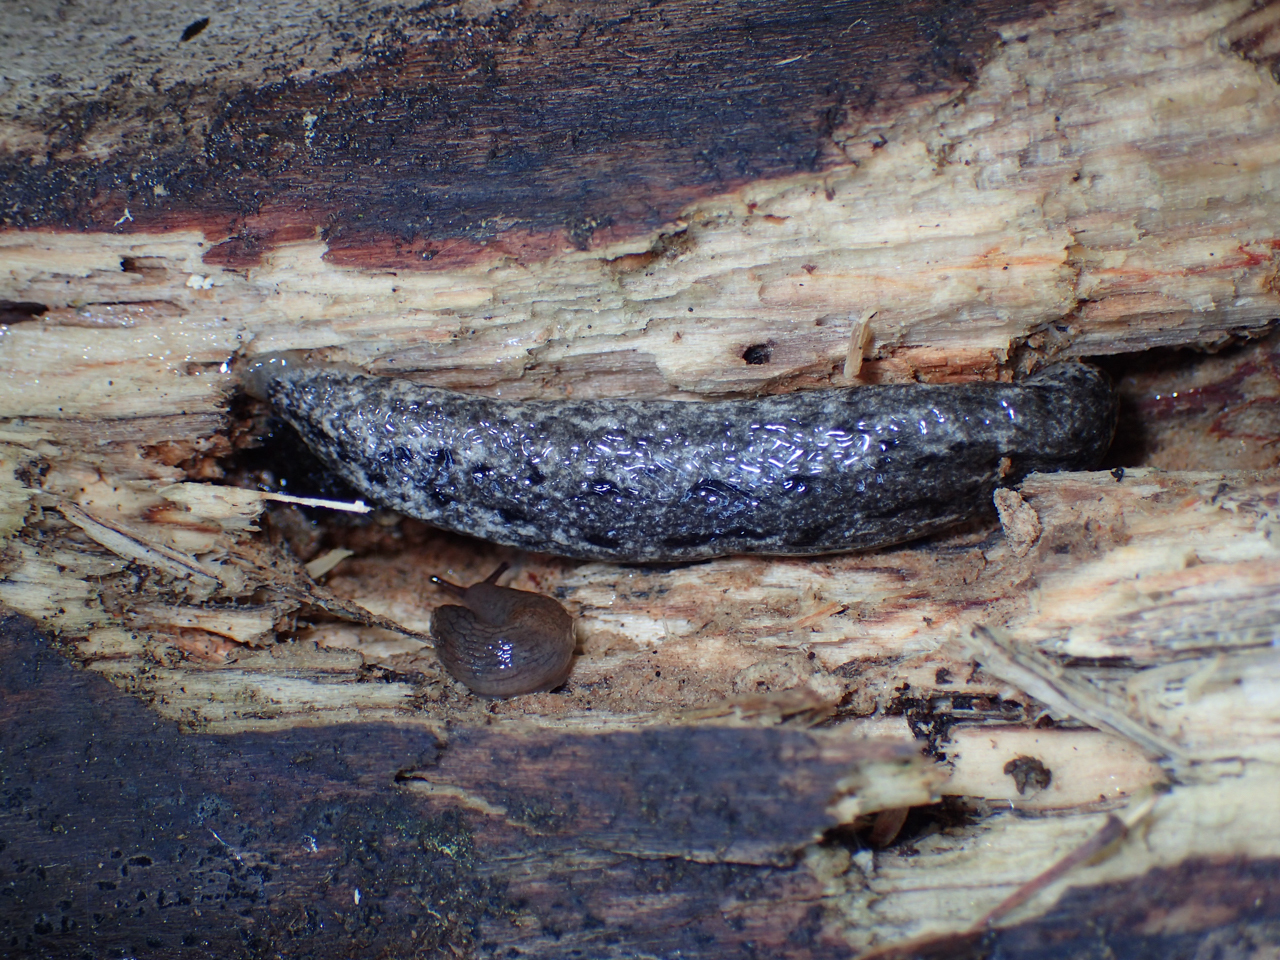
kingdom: Animalia
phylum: Mollusca
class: Gastropoda
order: Stylommatophora
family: Philomycidae
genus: Philomycus
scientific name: Philomycus carolinianus
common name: Carolina mantleslug
